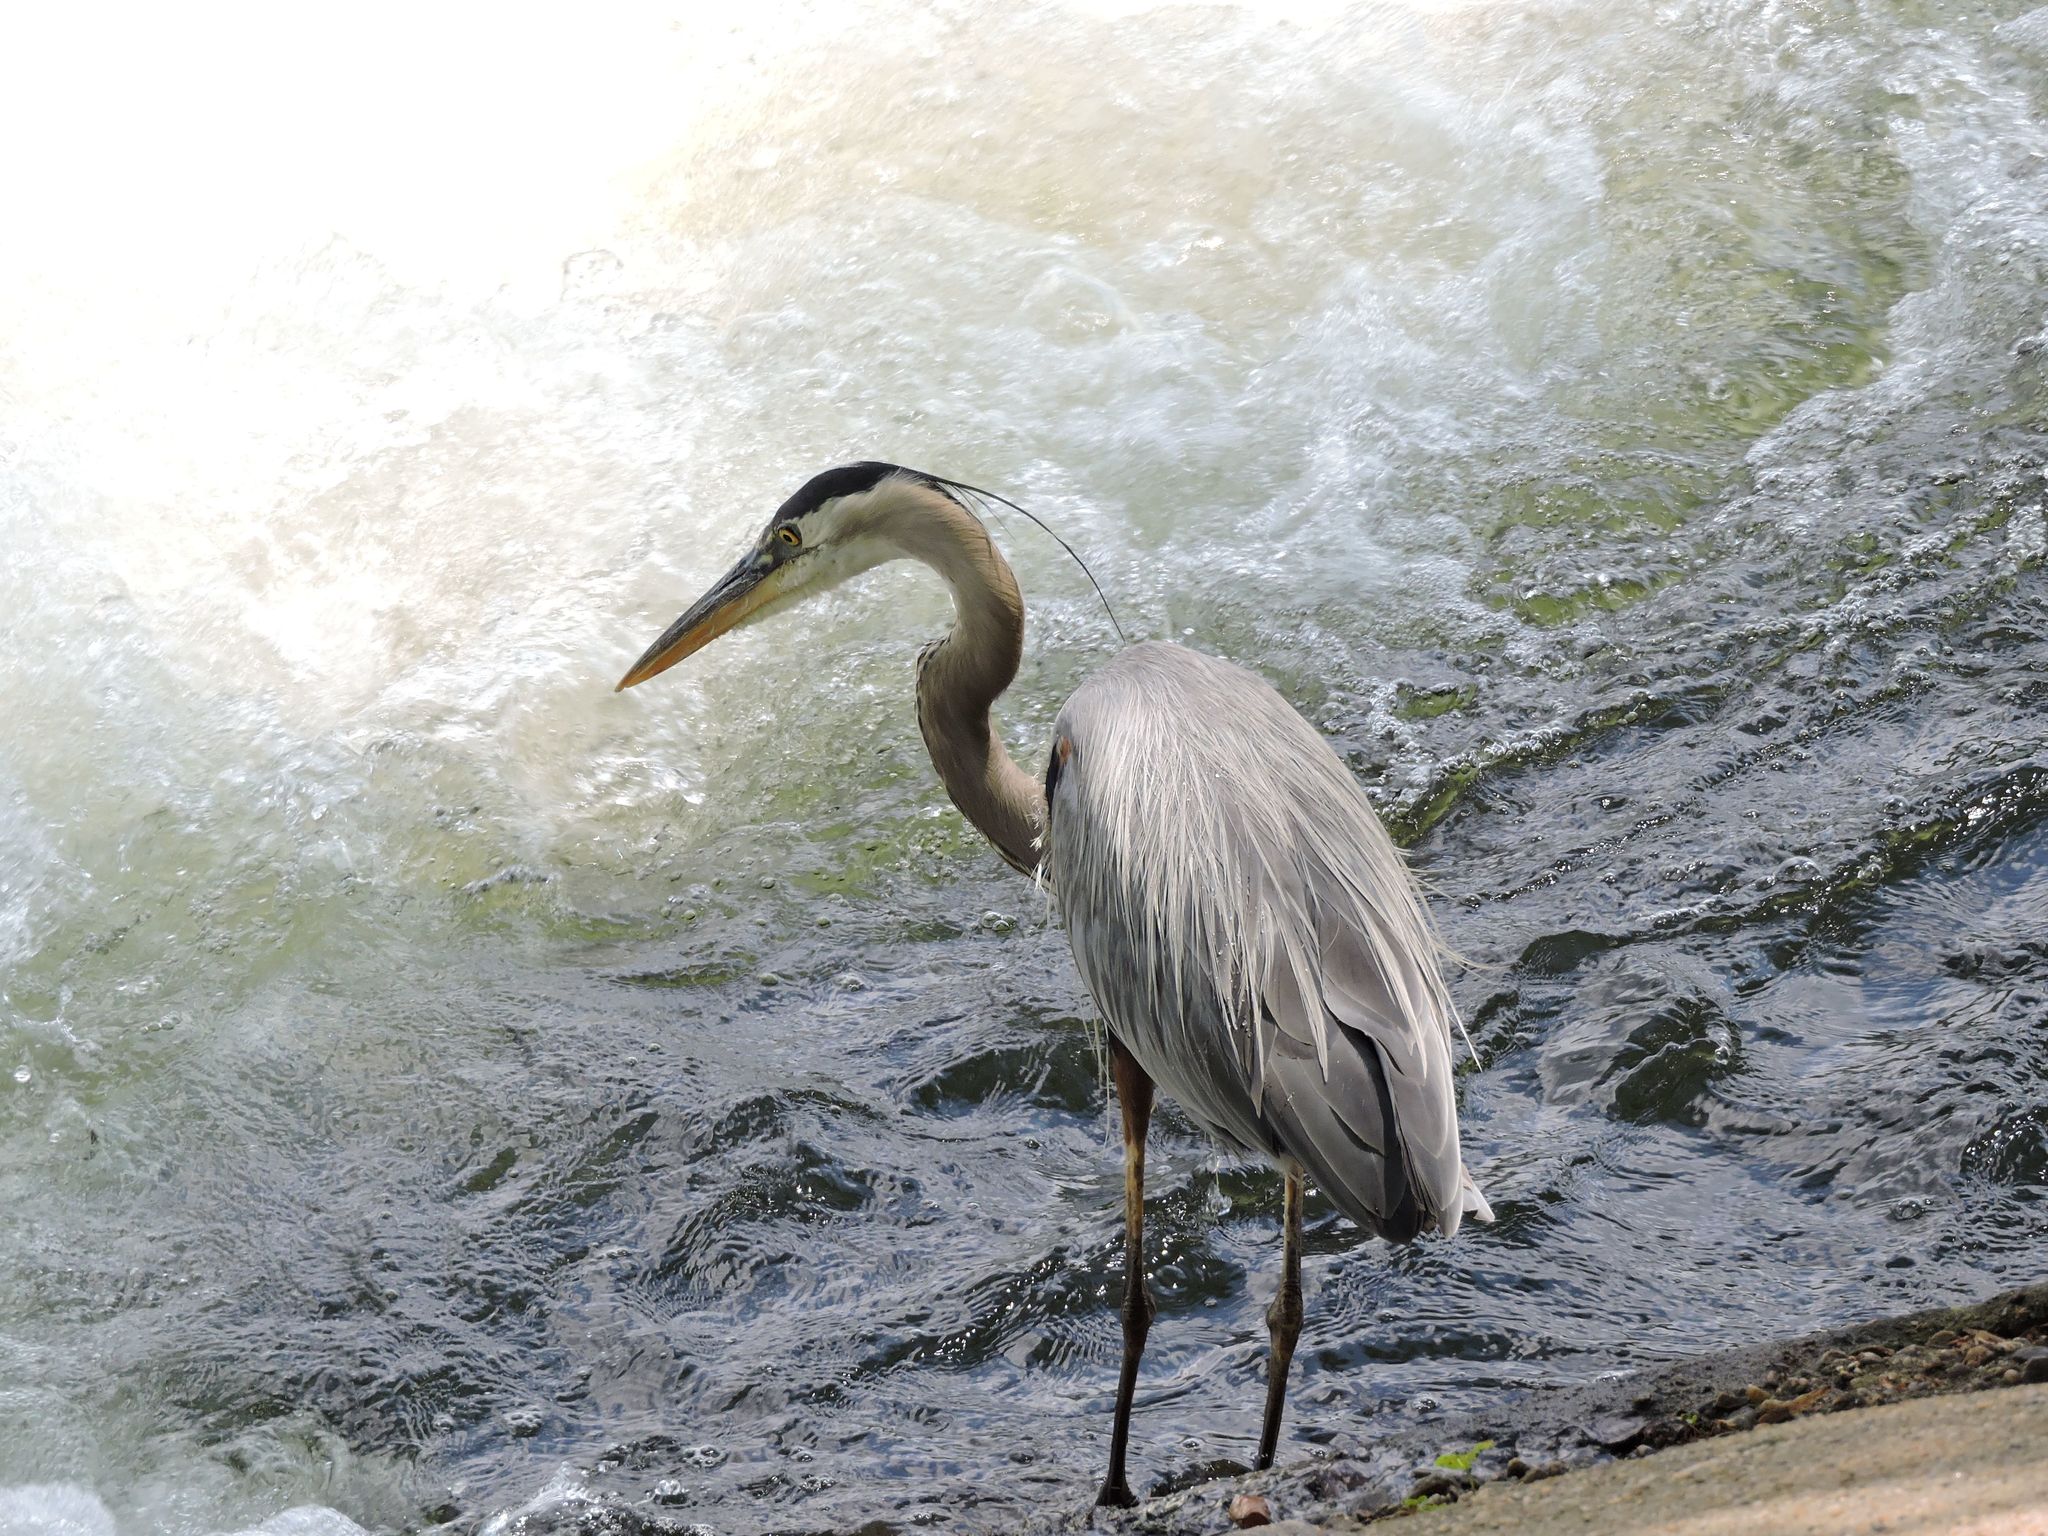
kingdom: Animalia
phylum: Chordata
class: Aves
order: Pelecaniformes
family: Ardeidae
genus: Ardea
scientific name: Ardea herodias
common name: Great blue heron
